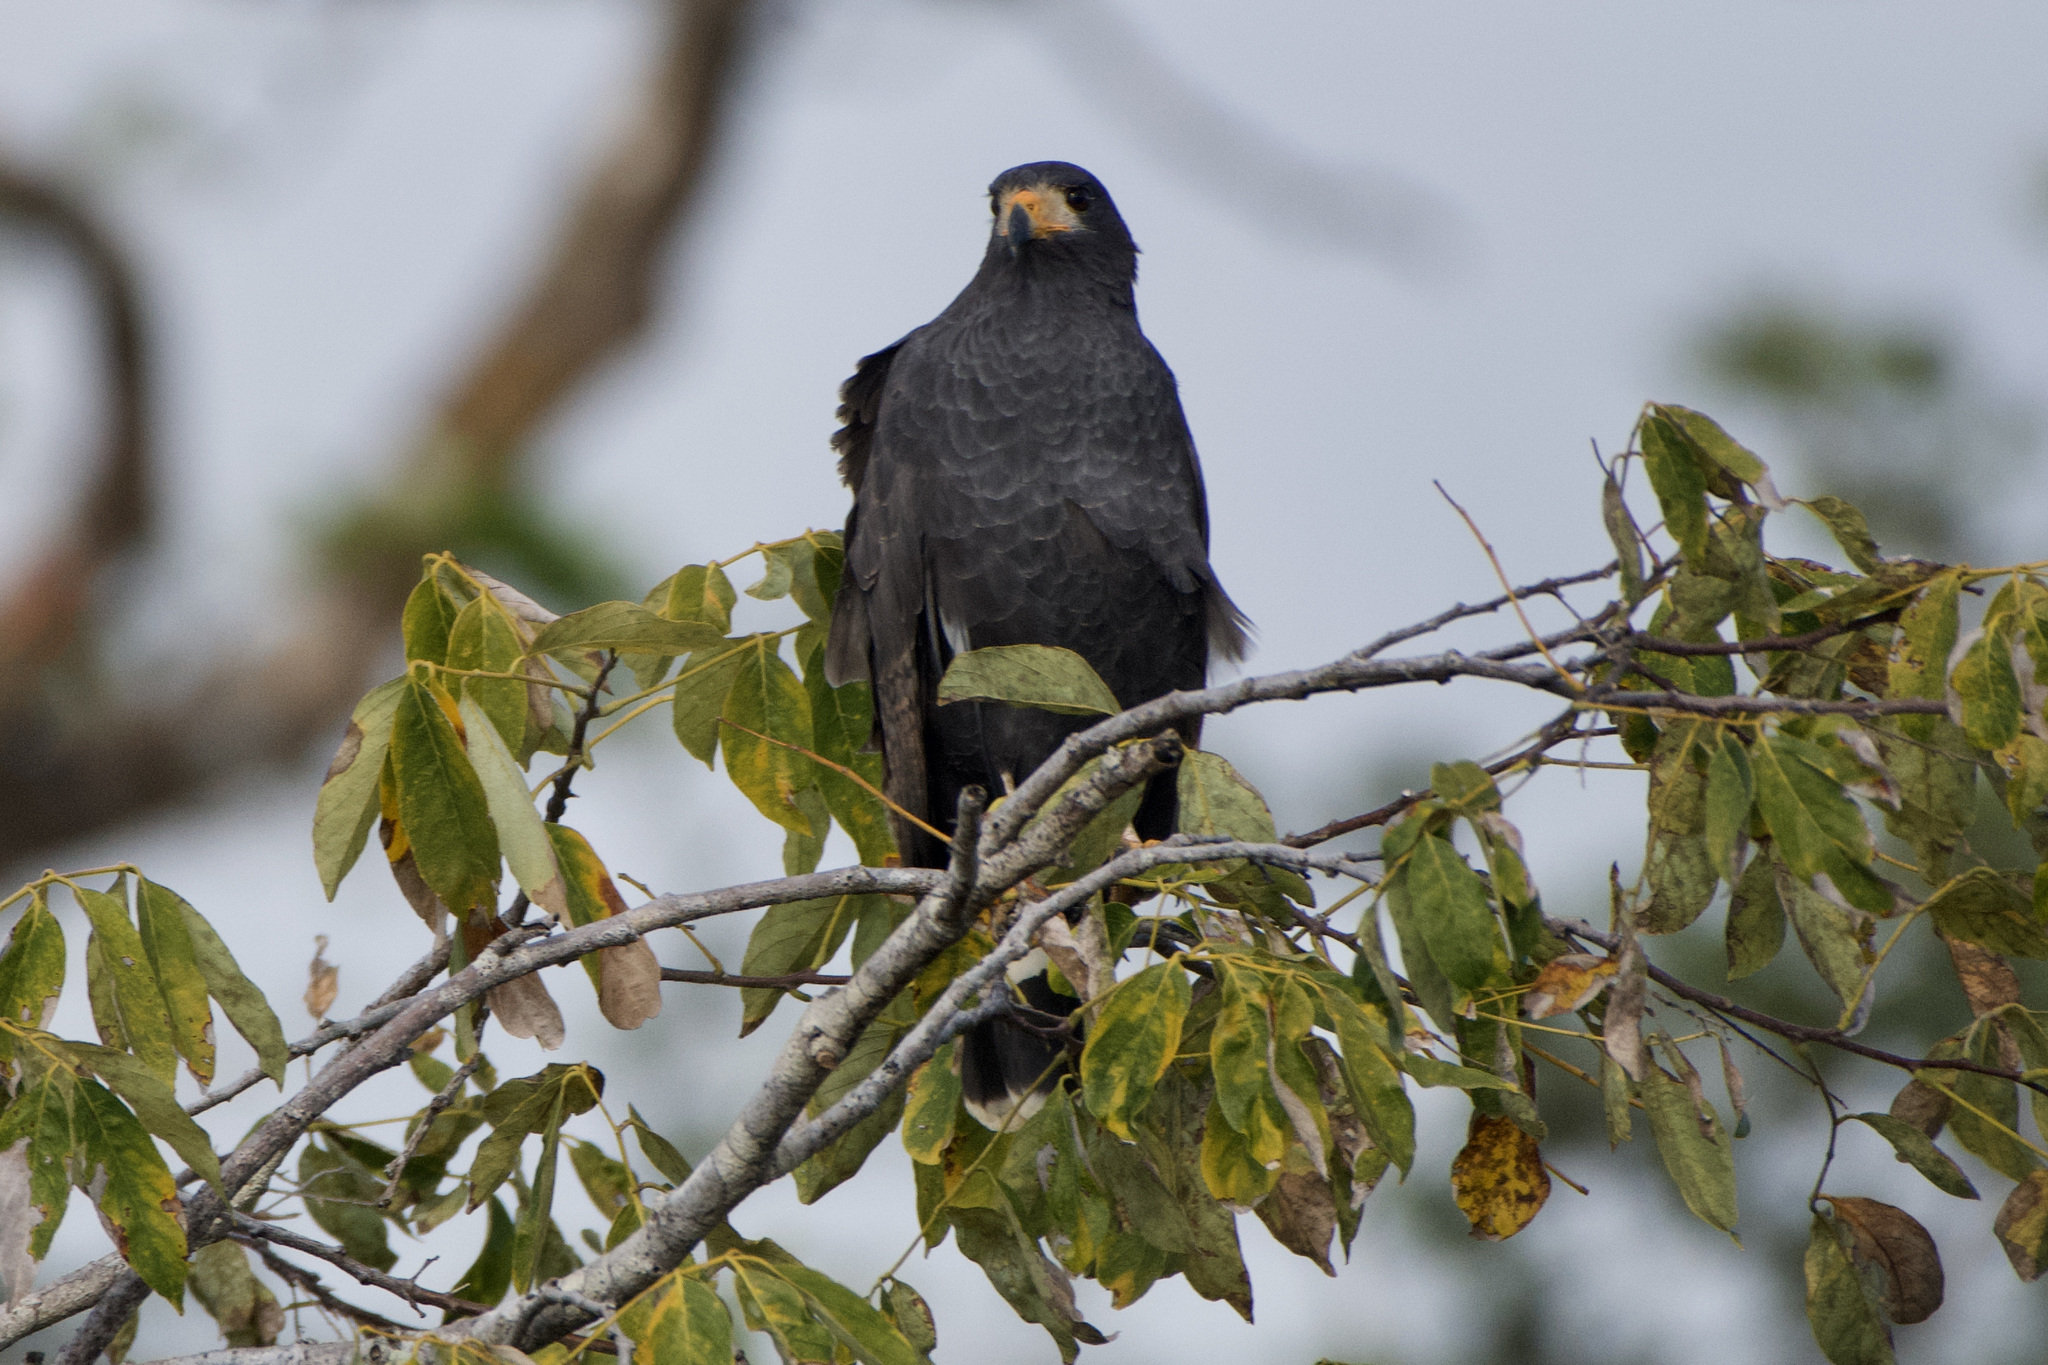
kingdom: Animalia
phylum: Chordata
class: Aves
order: Accipitriformes
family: Accipitridae
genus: Buteogallus
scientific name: Buteogallus anthracinus
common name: Common black hawk
